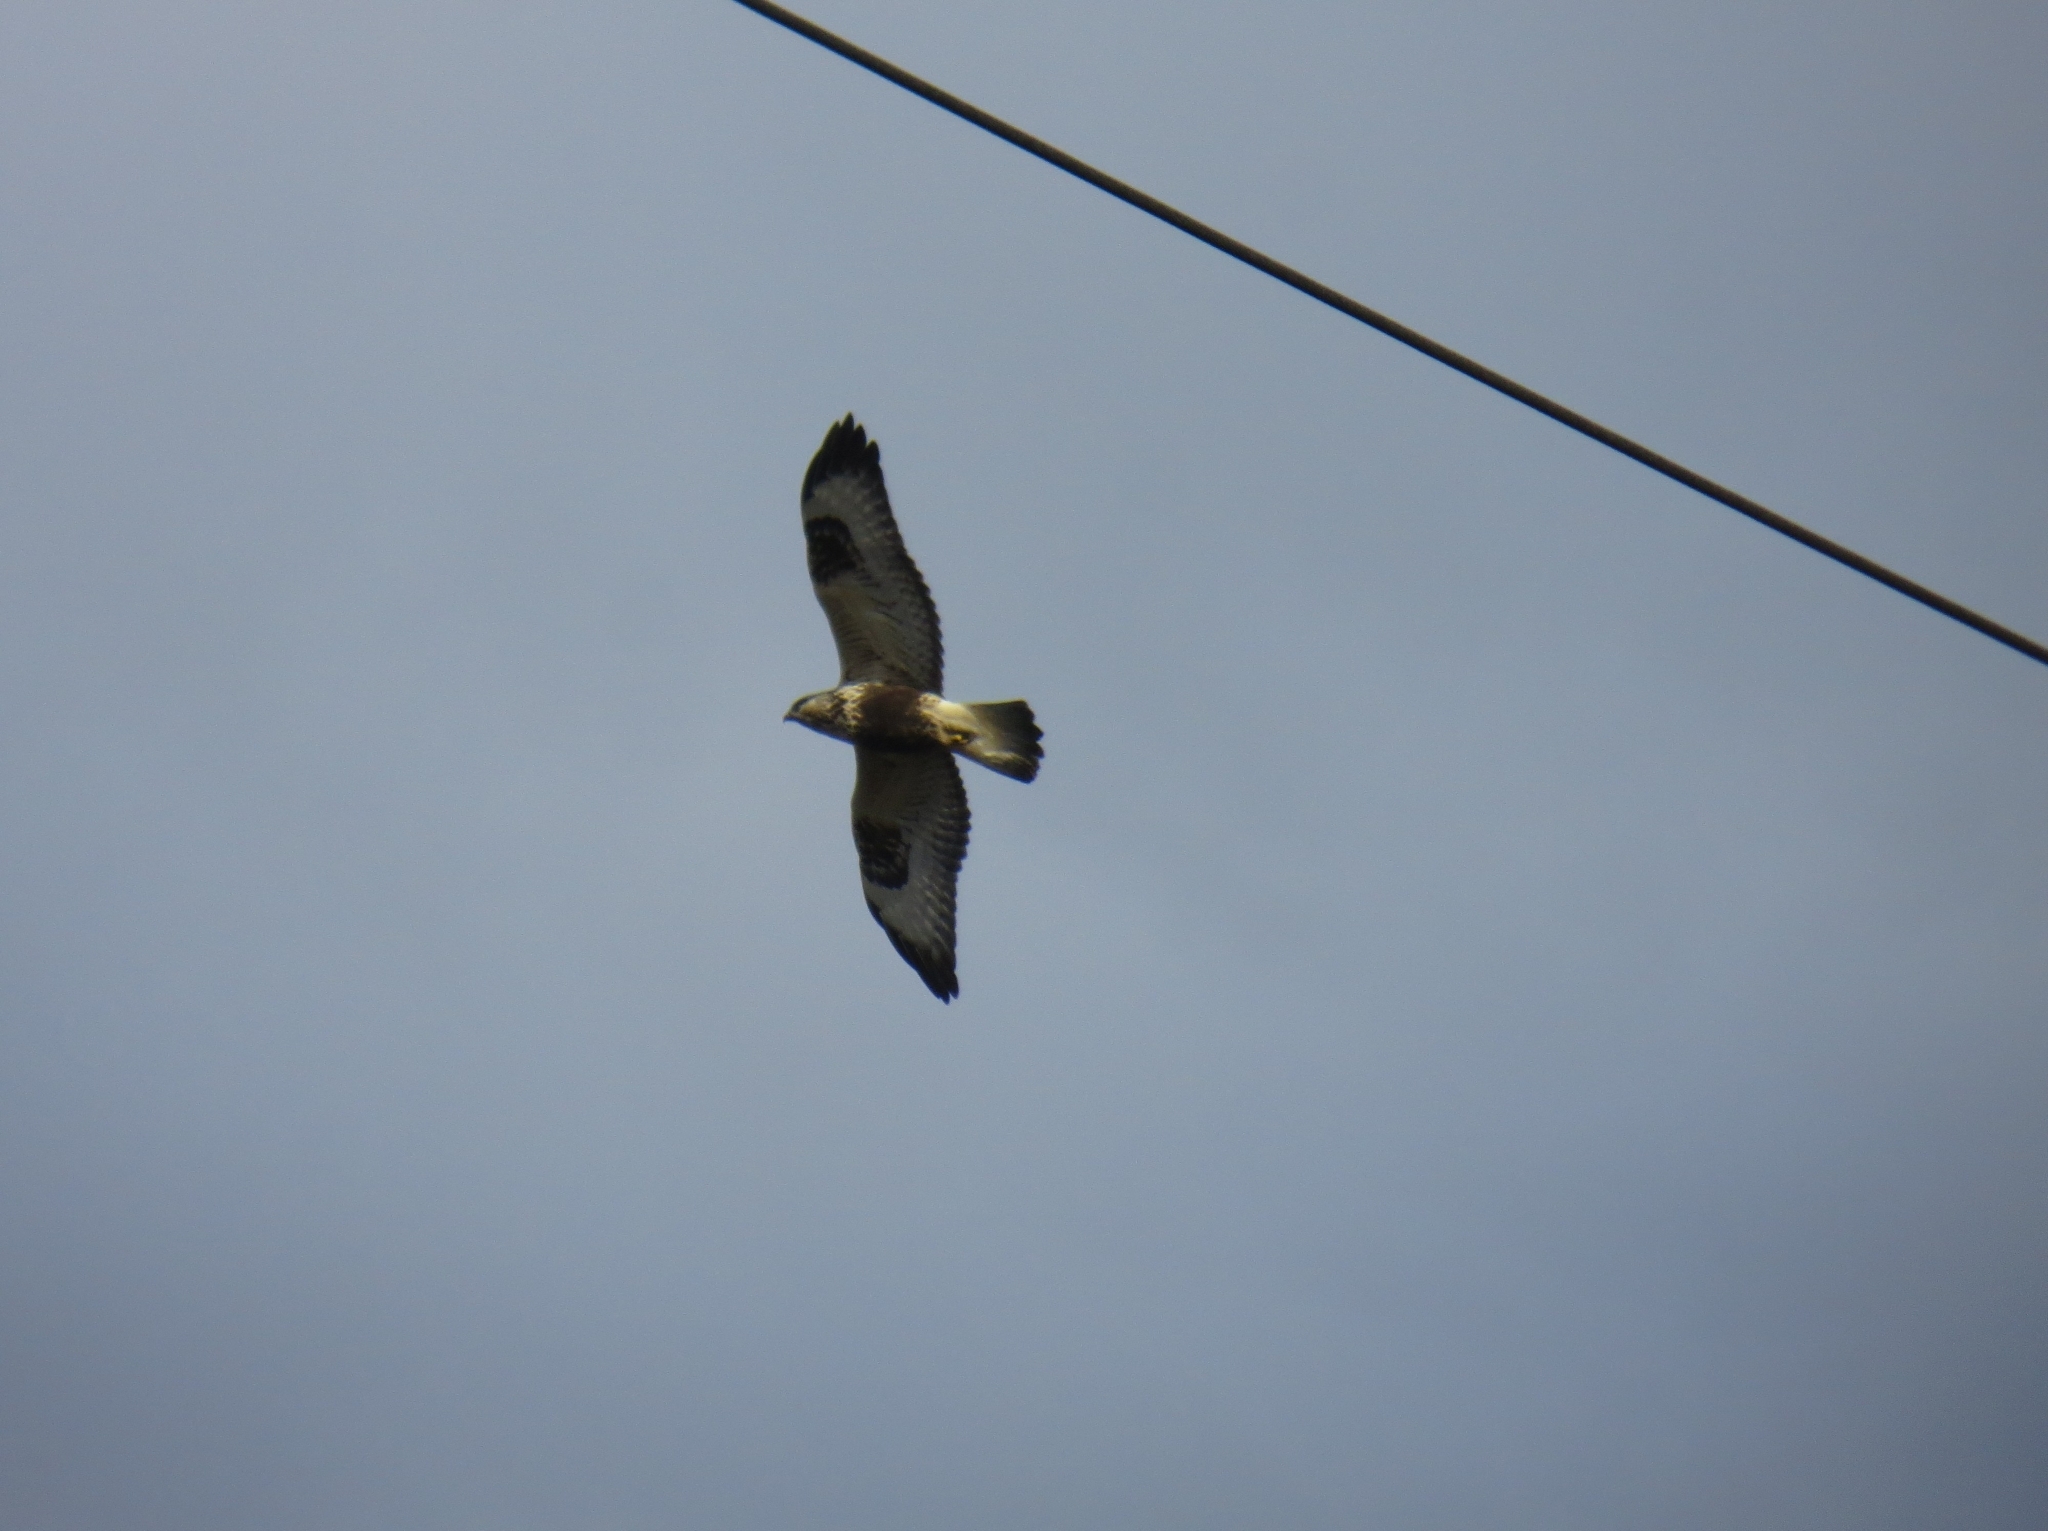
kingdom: Animalia
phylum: Chordata
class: Aves
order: Accipitriformes
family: Accipitridae
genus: Buteo
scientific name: Buteo lagopus
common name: Rough-legged buzzard
